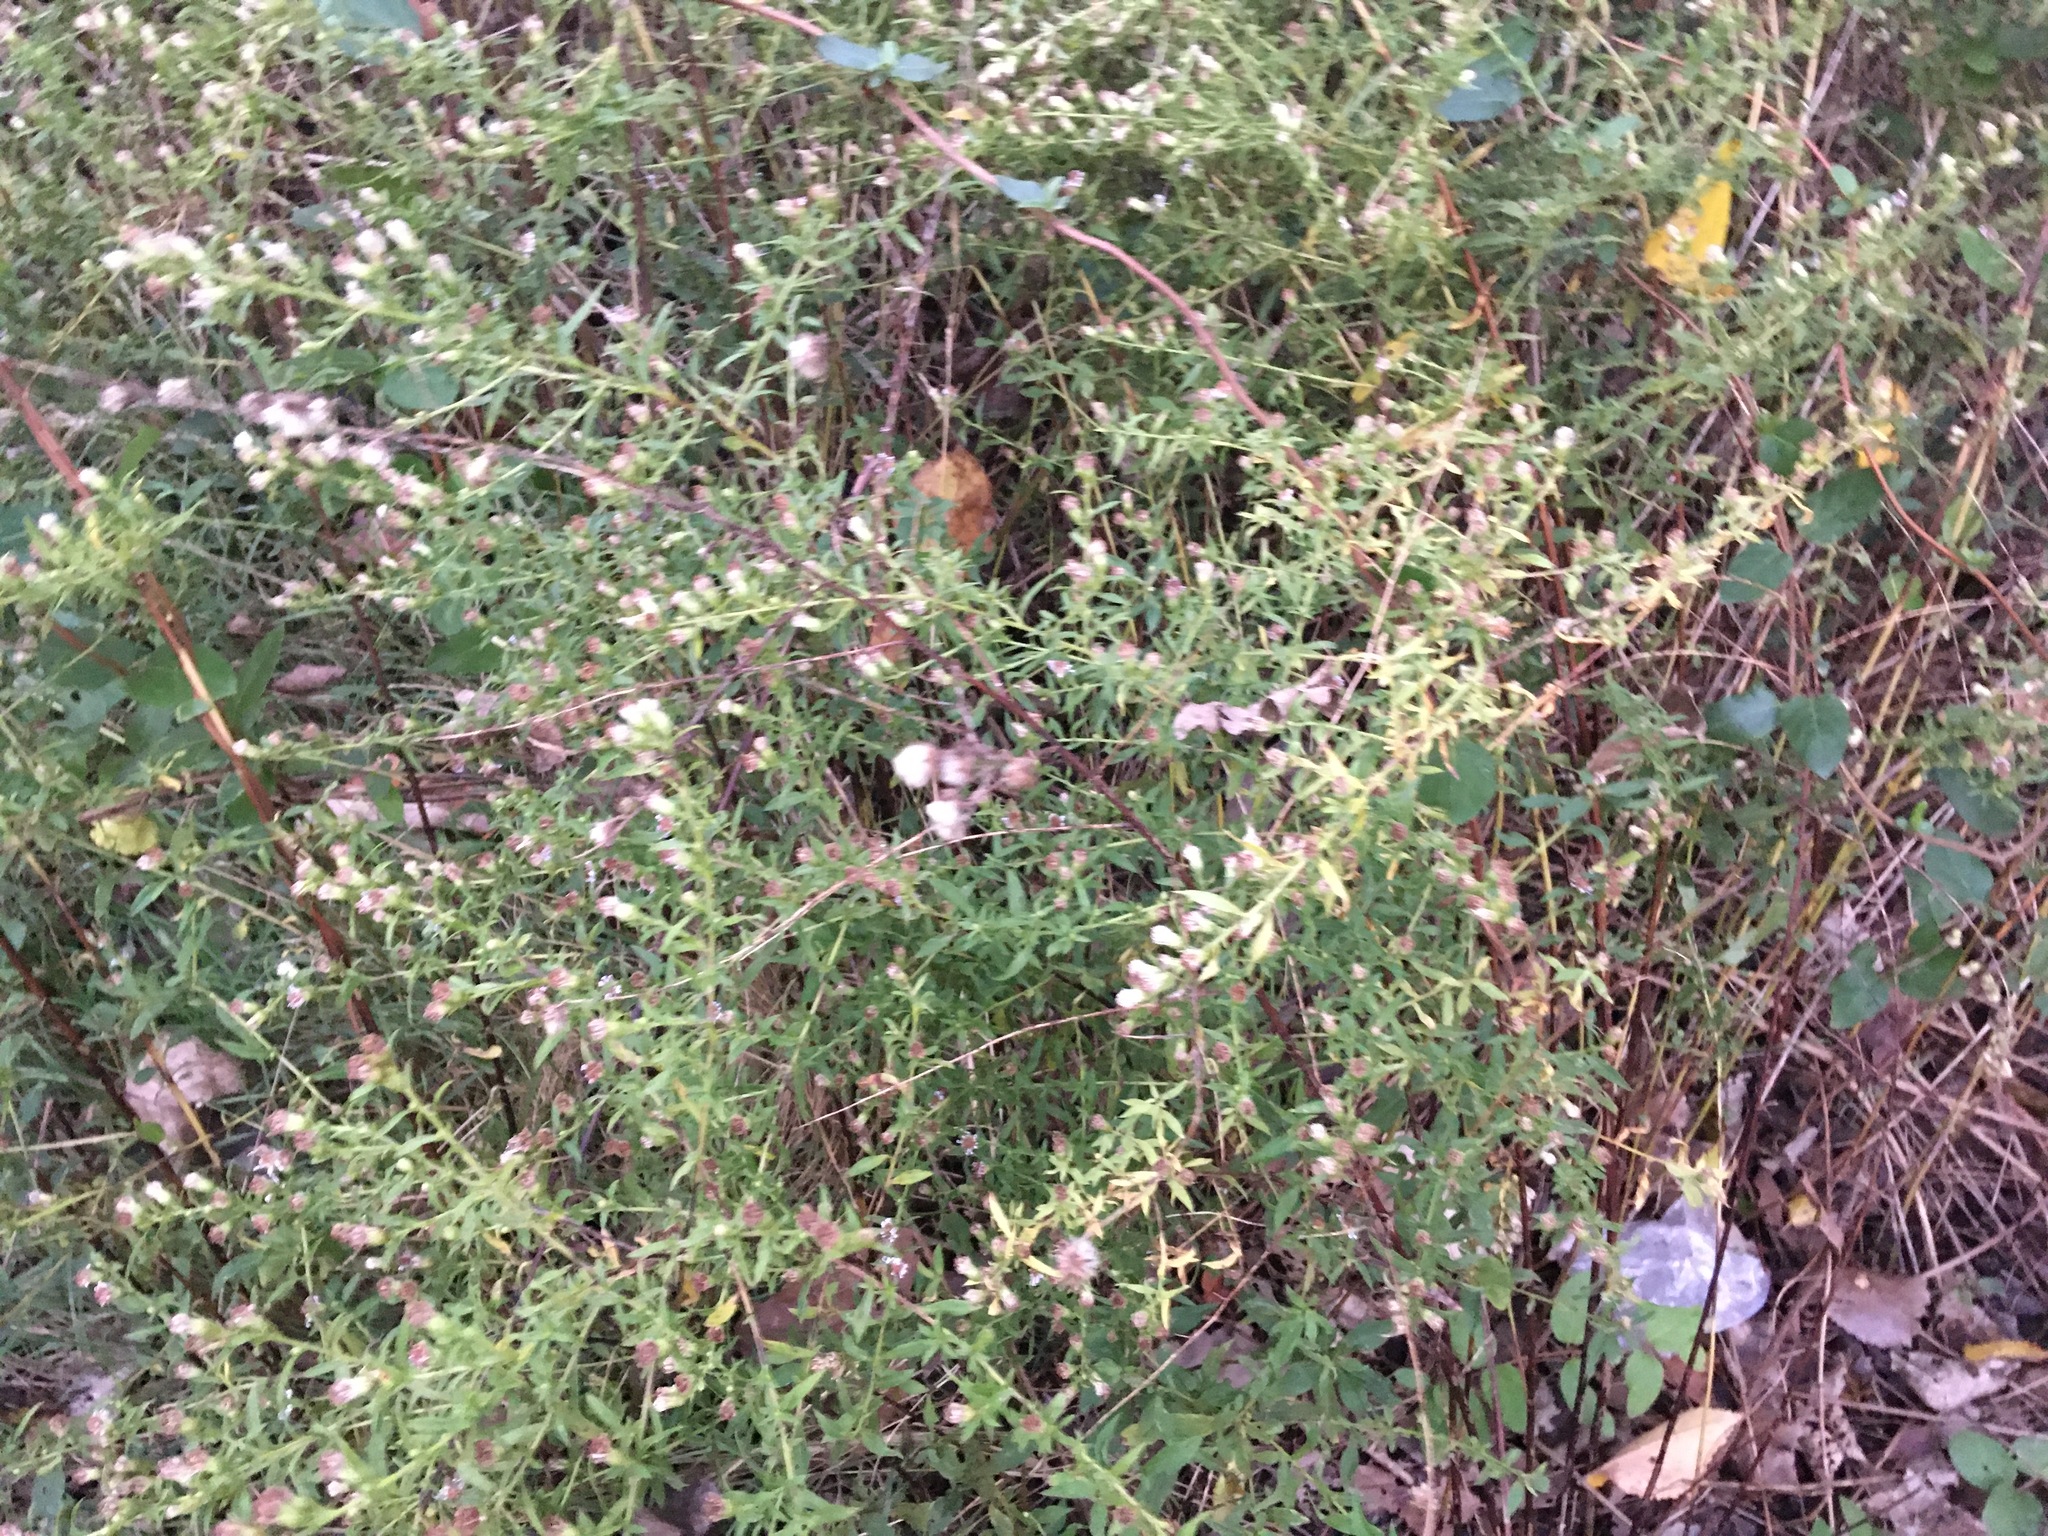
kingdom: Plantae
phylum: Tracheophyta
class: Magnoliopsida
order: Asterales
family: Asteraceae
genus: Artemisia
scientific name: Artemisia vulgaris
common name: Mugwort
